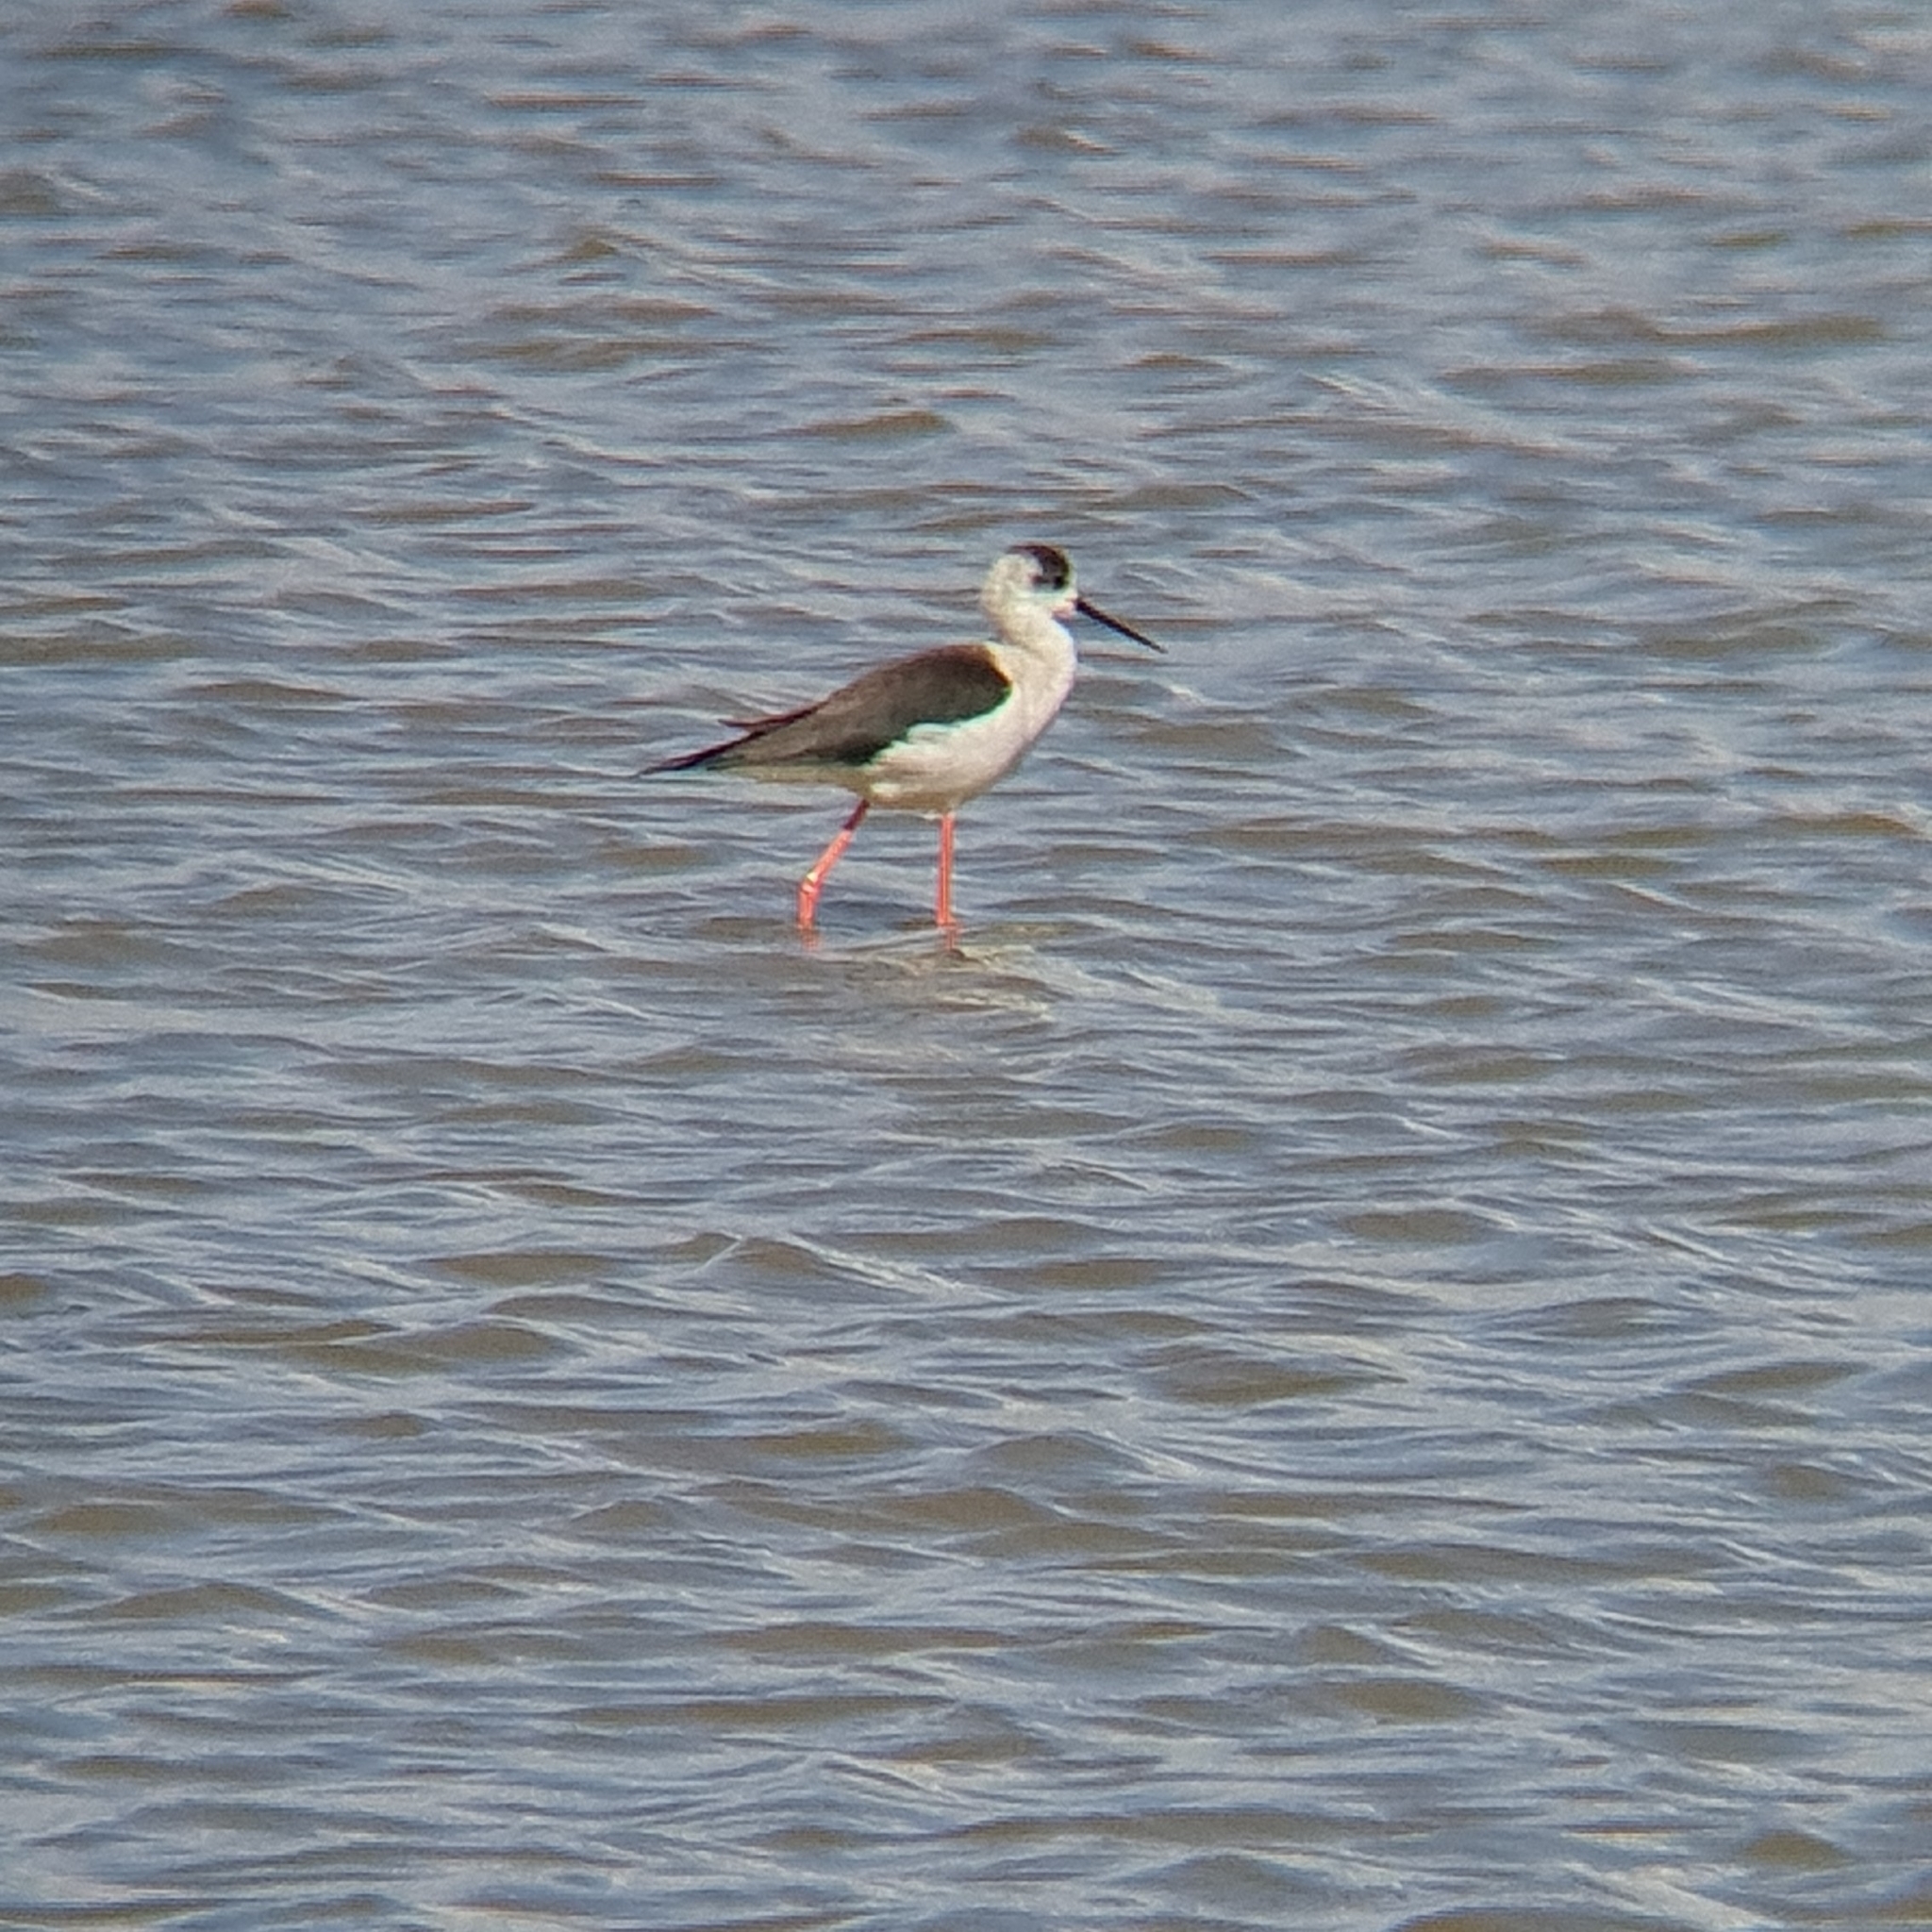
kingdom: Animalia
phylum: Chordata
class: Aves
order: Charadriiformes
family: Recurvirostridae
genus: Himantopus
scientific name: Himantopus himantopus
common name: Black-winged stilt
